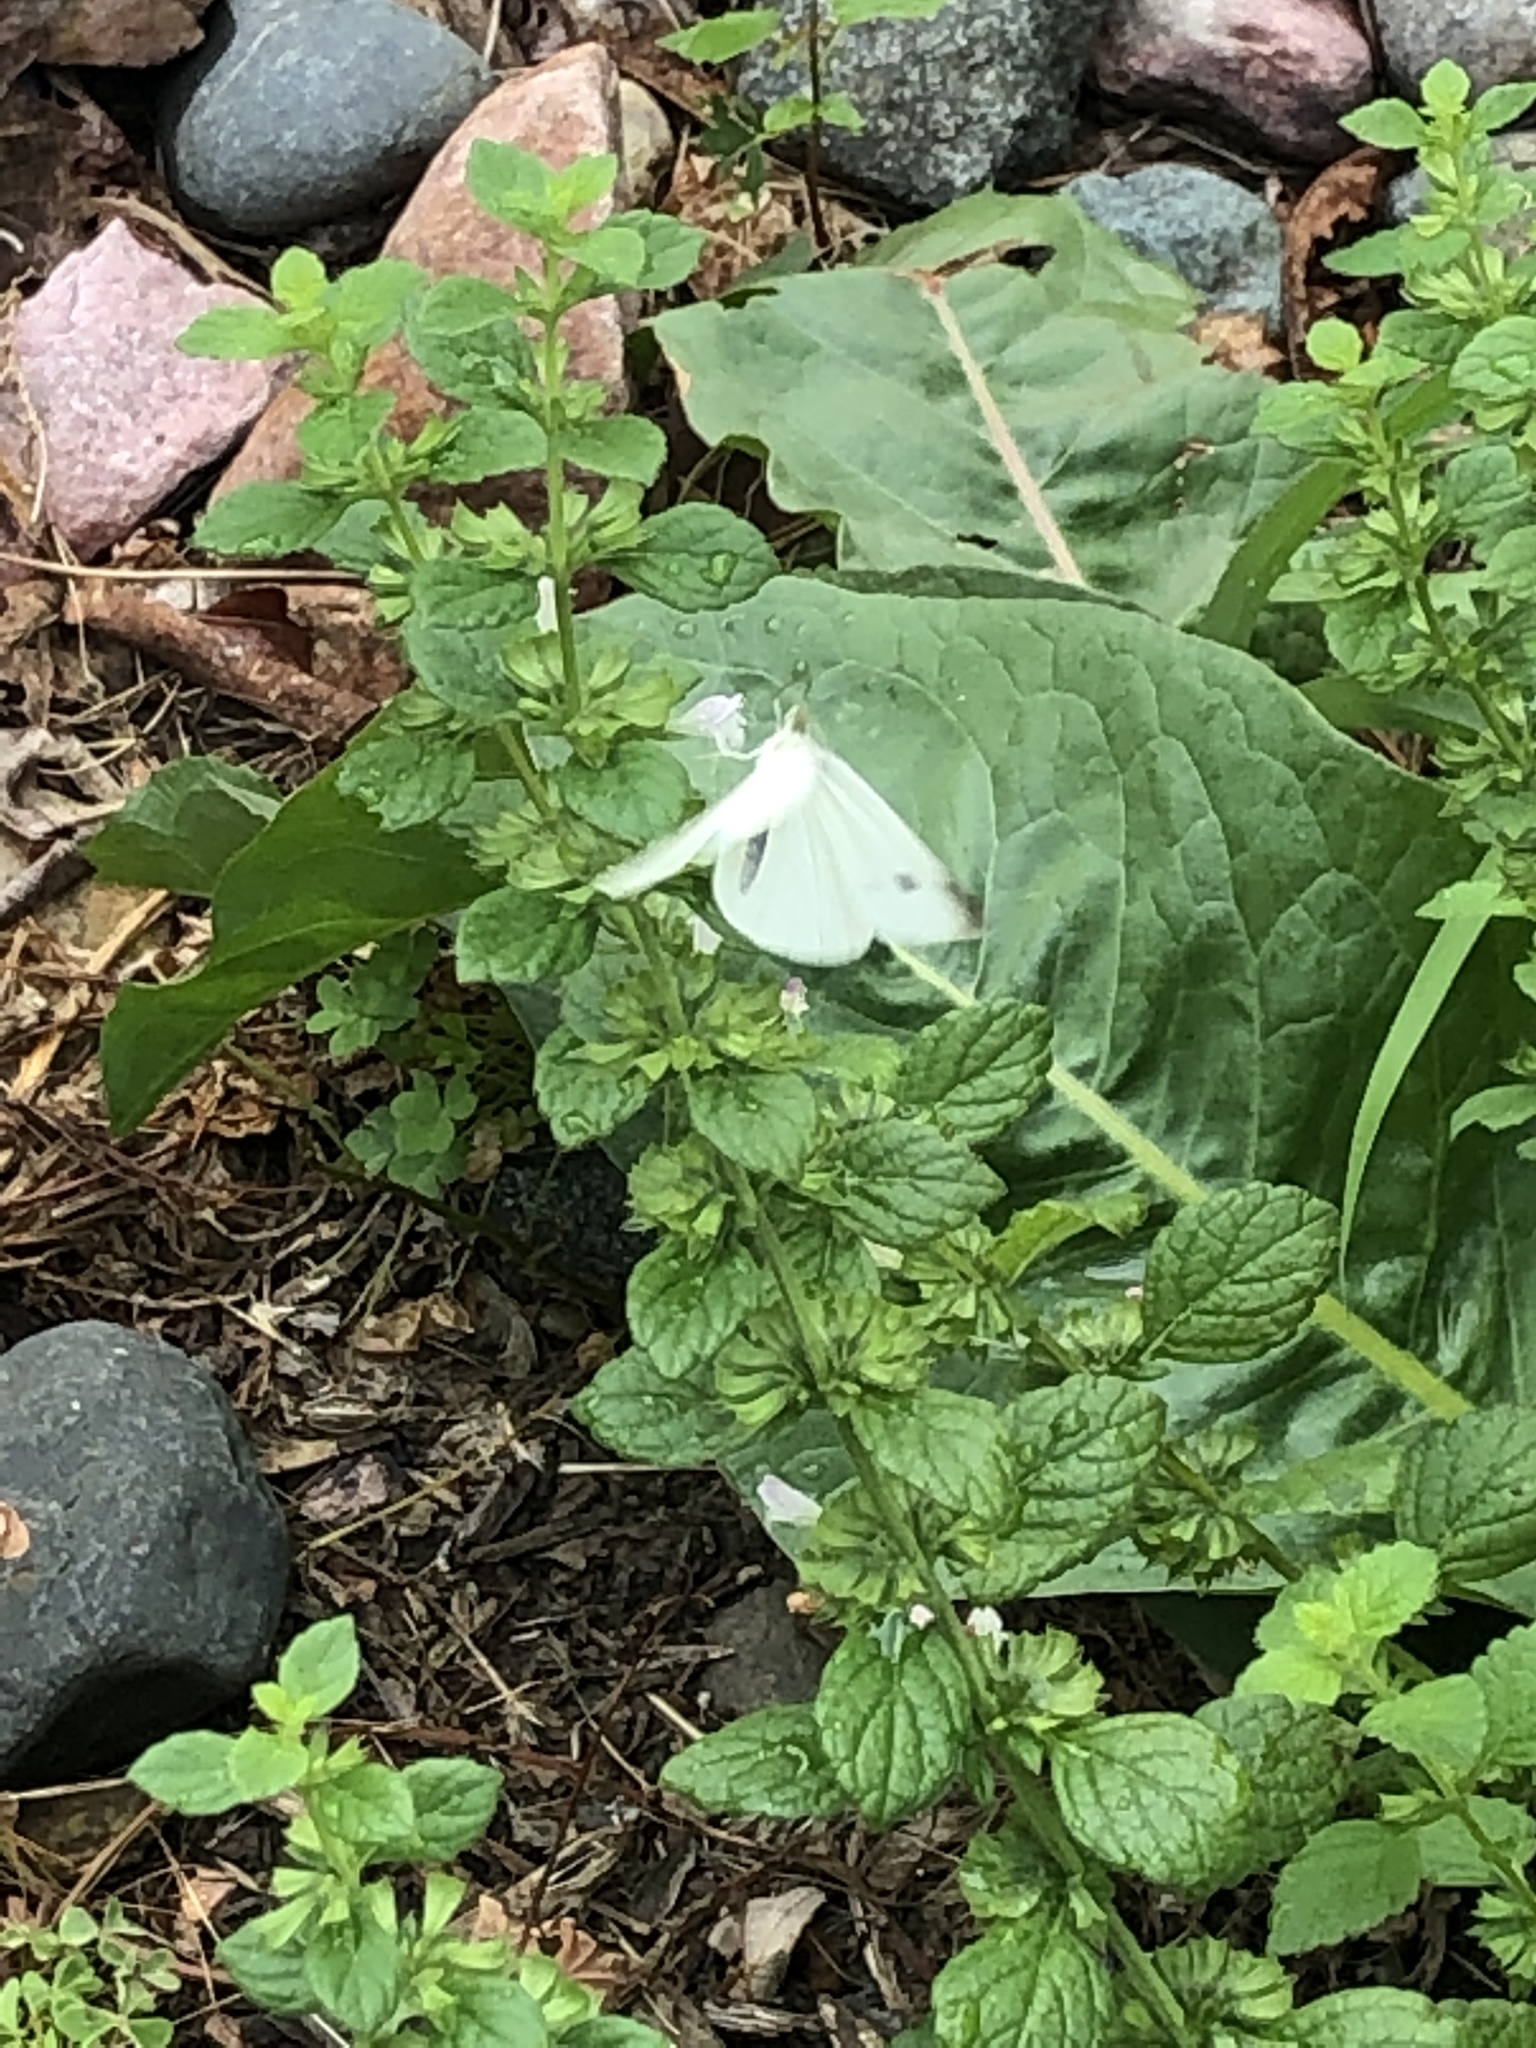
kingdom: Animalia
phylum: Arthropoda
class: Insecta
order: Lepidoptera
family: Pieridae
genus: Pieris
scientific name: Pieris rapae
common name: Small white
